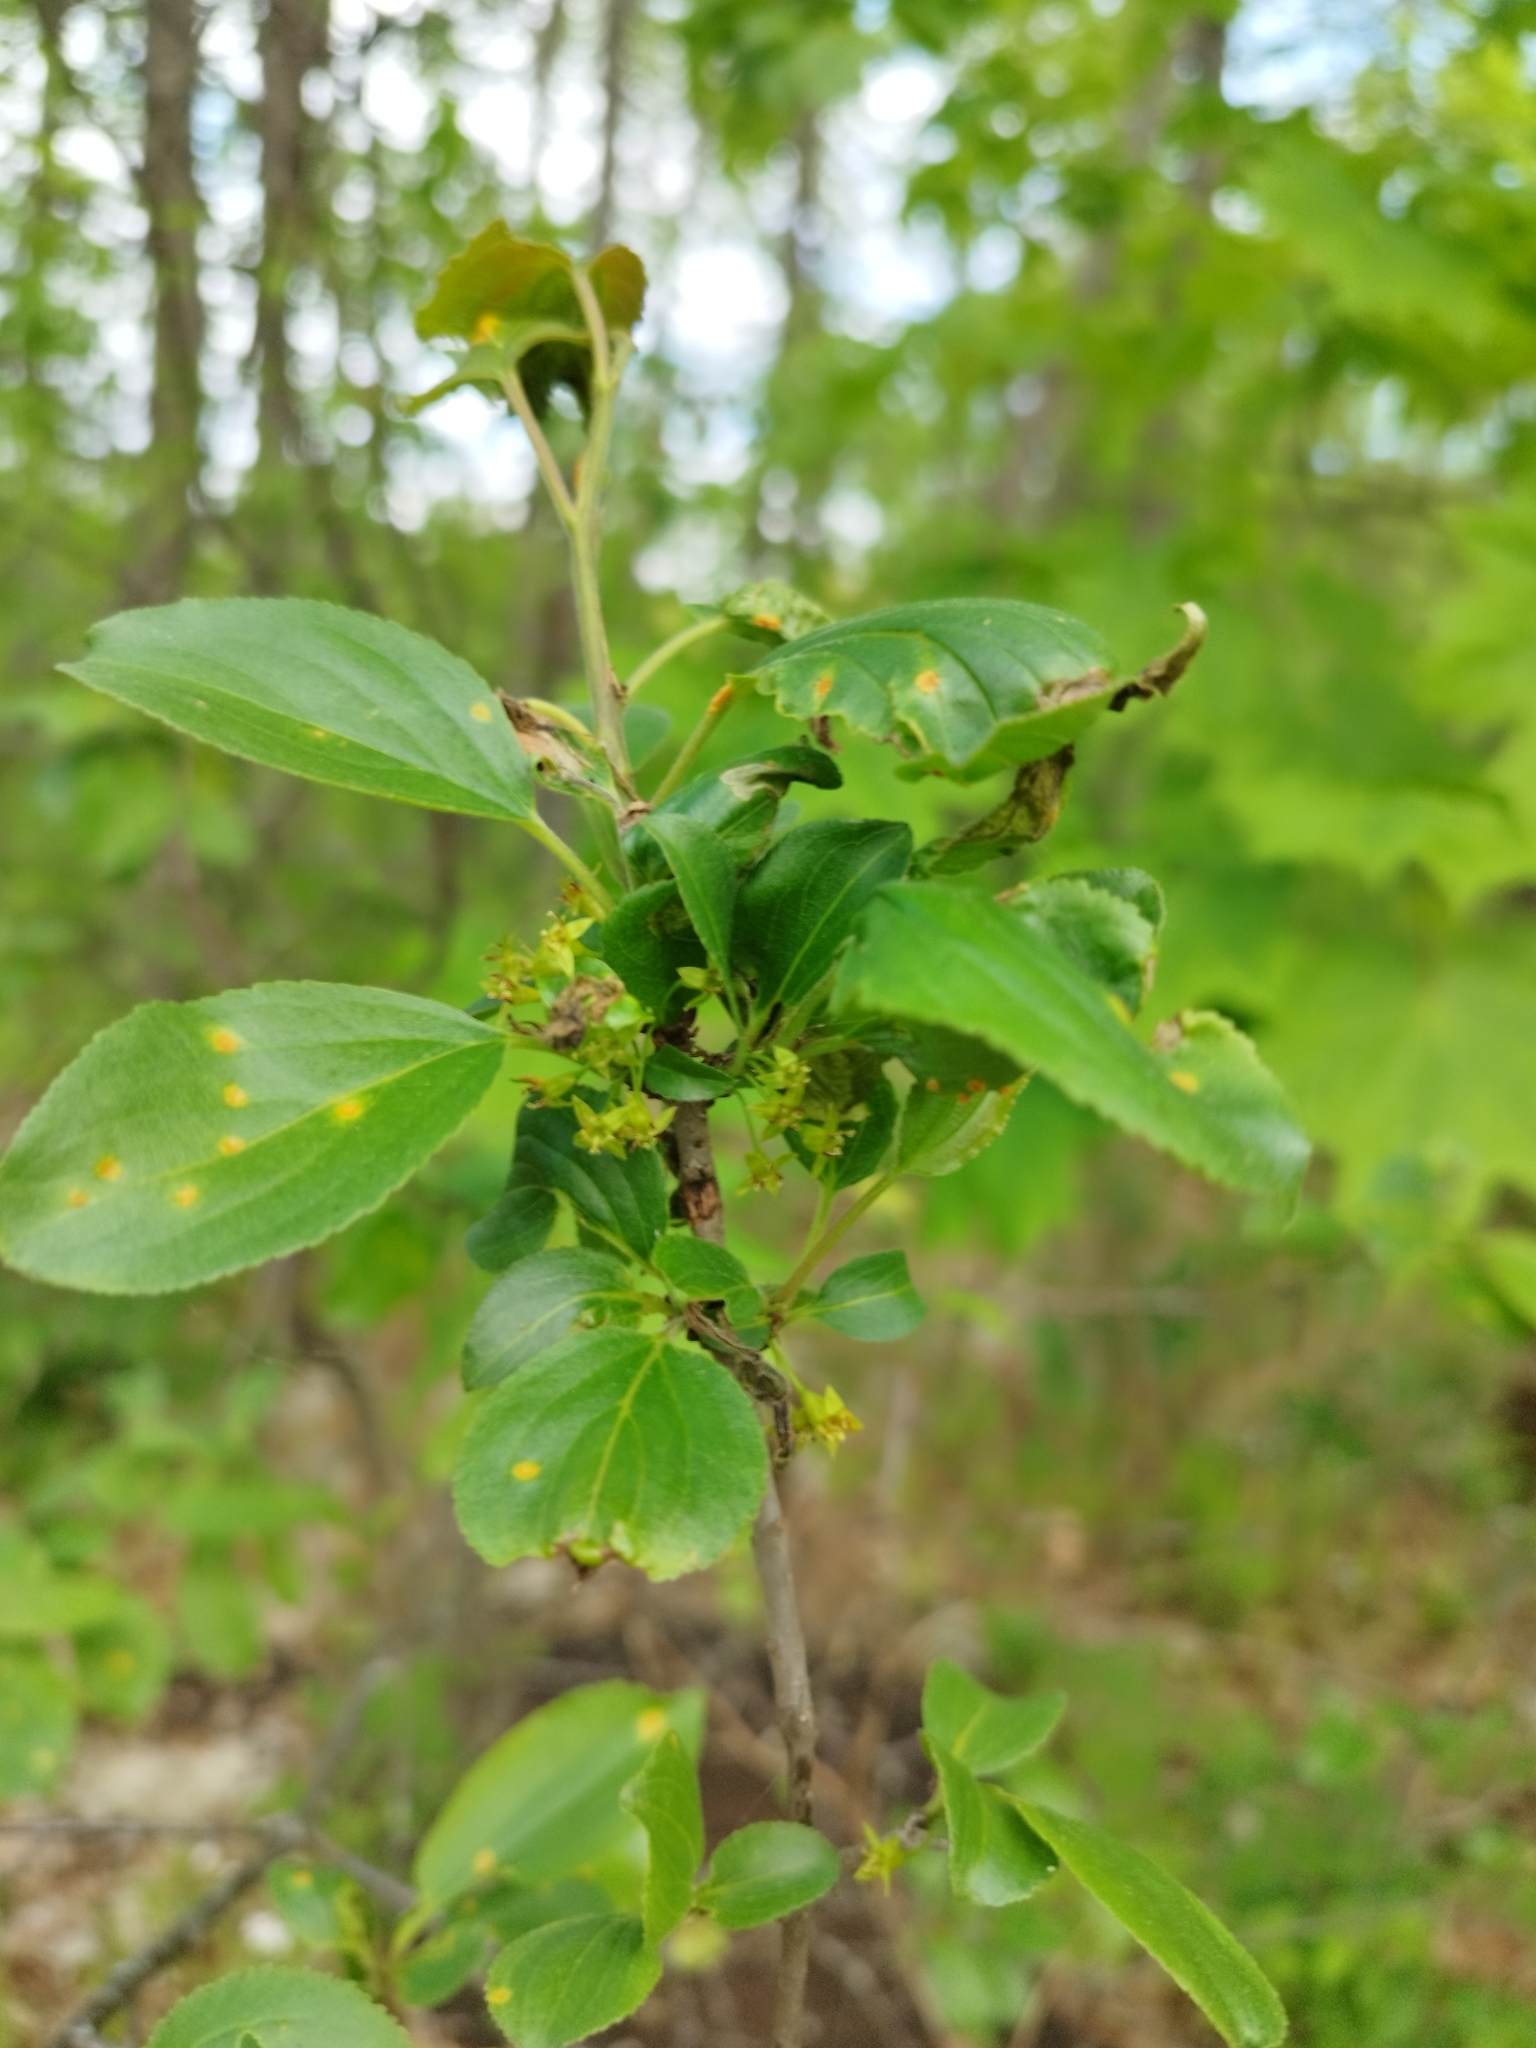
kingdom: Plantae
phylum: Tracheophyta
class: Magnoliopsida
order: Rosales
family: Rhamnaceae
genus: Rhamnus
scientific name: Rhamnus cathartica
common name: Common buckthorn
